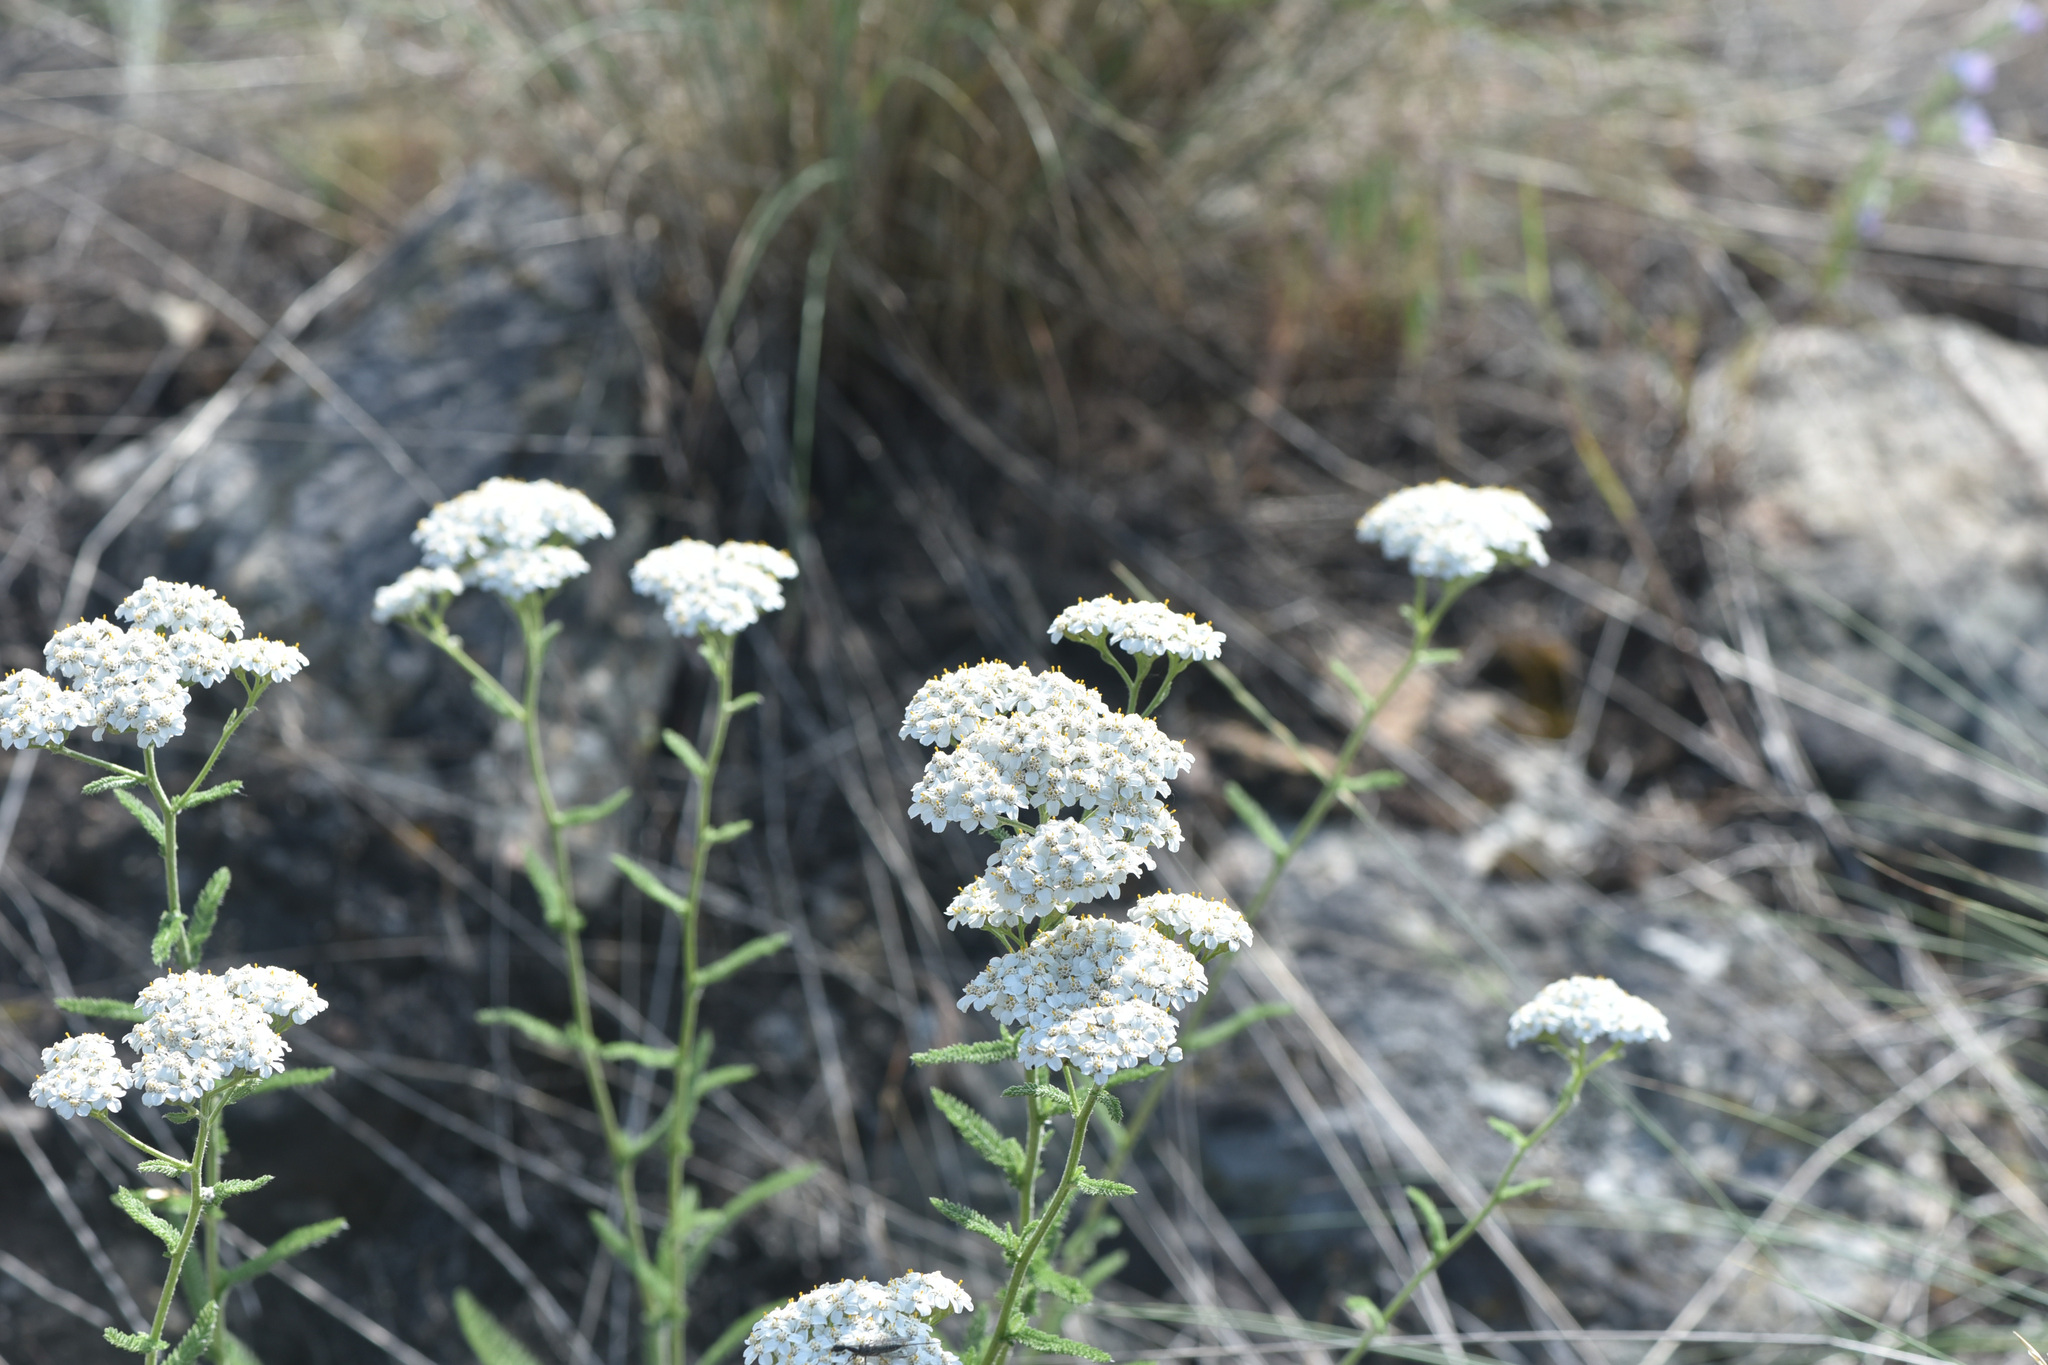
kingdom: Plantae
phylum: Tracheophyta
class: Magnoliopsida
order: Asterales
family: Asteraceae
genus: Achillea
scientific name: Achillea millefolium
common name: Yarrow
